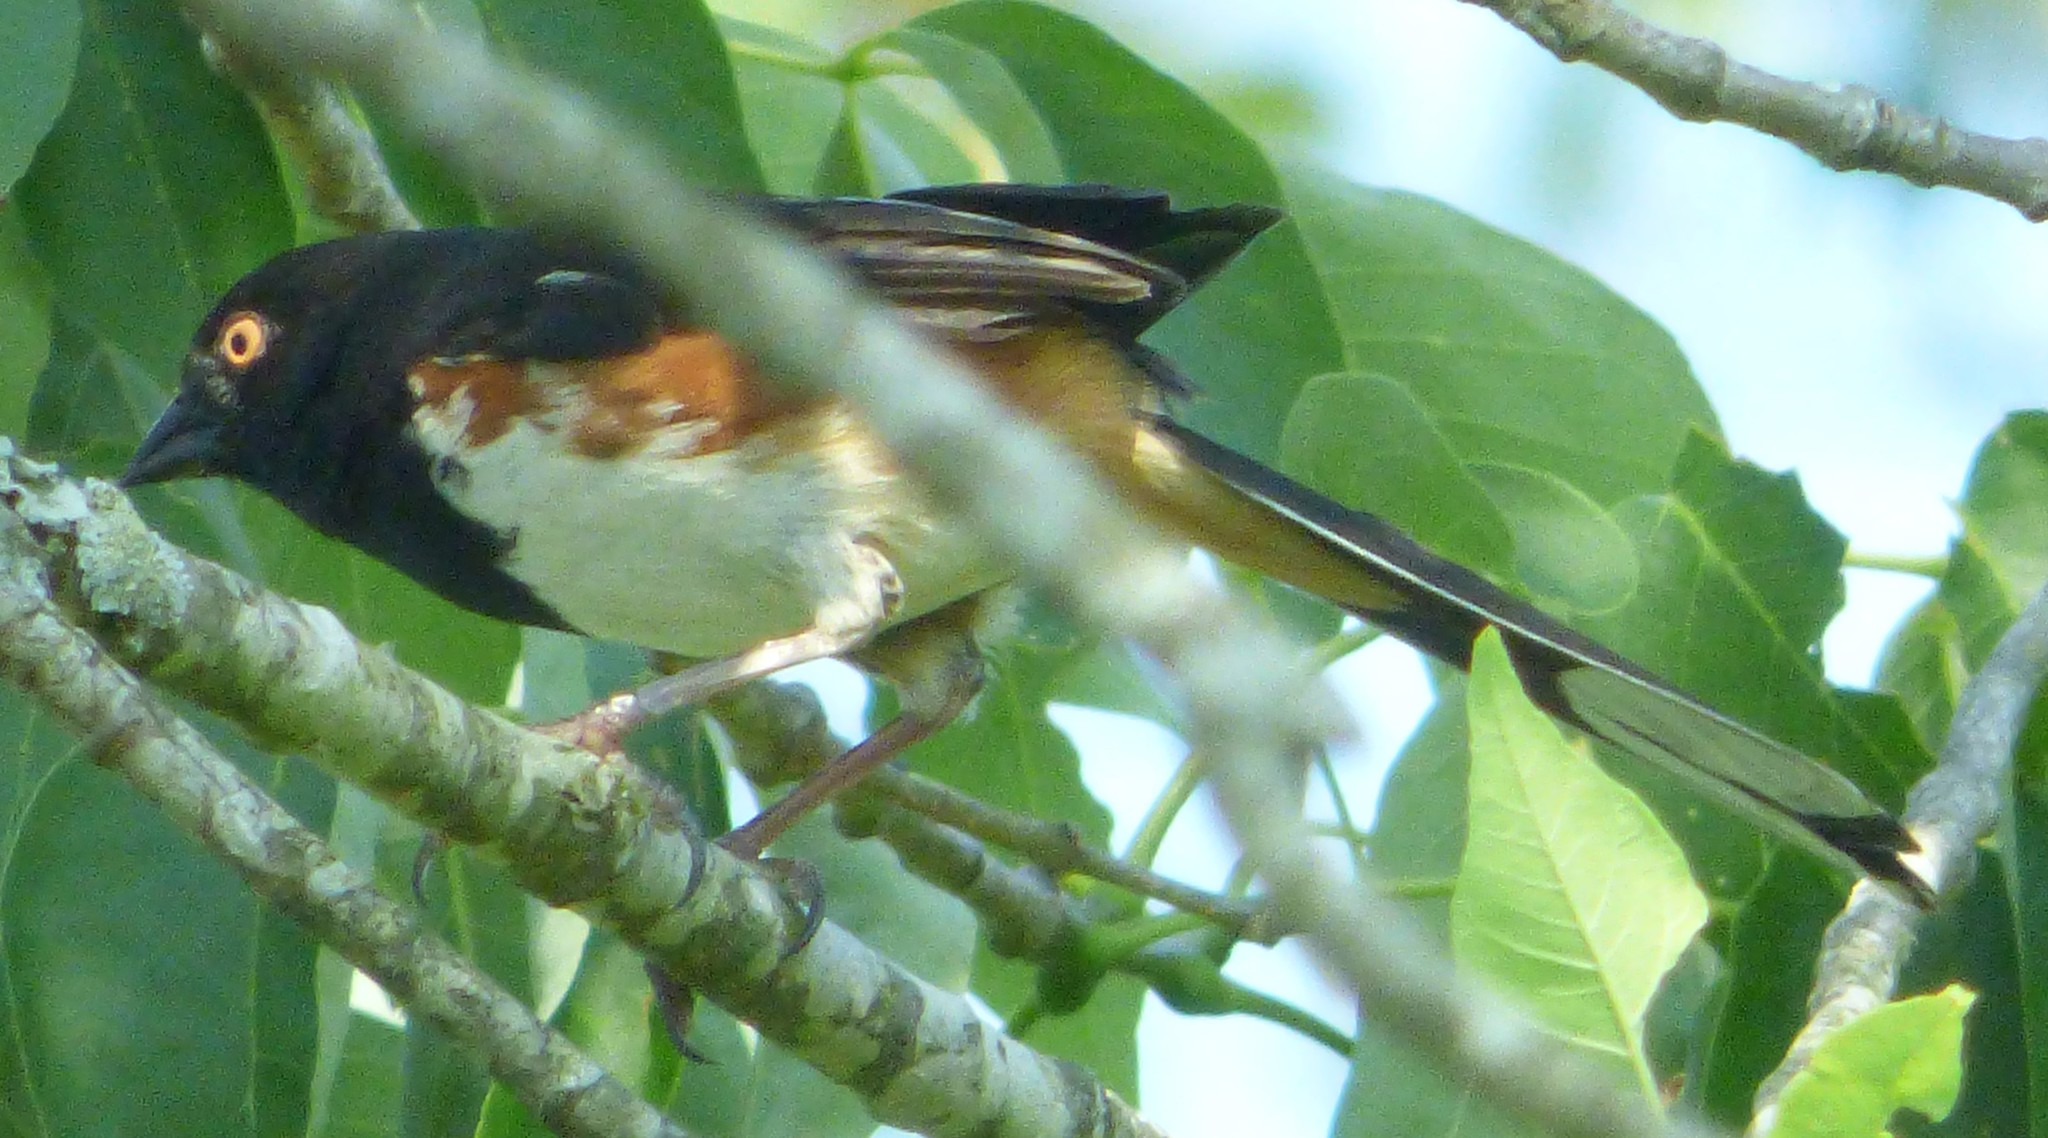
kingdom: Animalia
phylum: Chordata
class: Aves
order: Passeriformes
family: Passerellidae
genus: Pipilo
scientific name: Pipilo erythrophthalmus
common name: Eastern towhee
